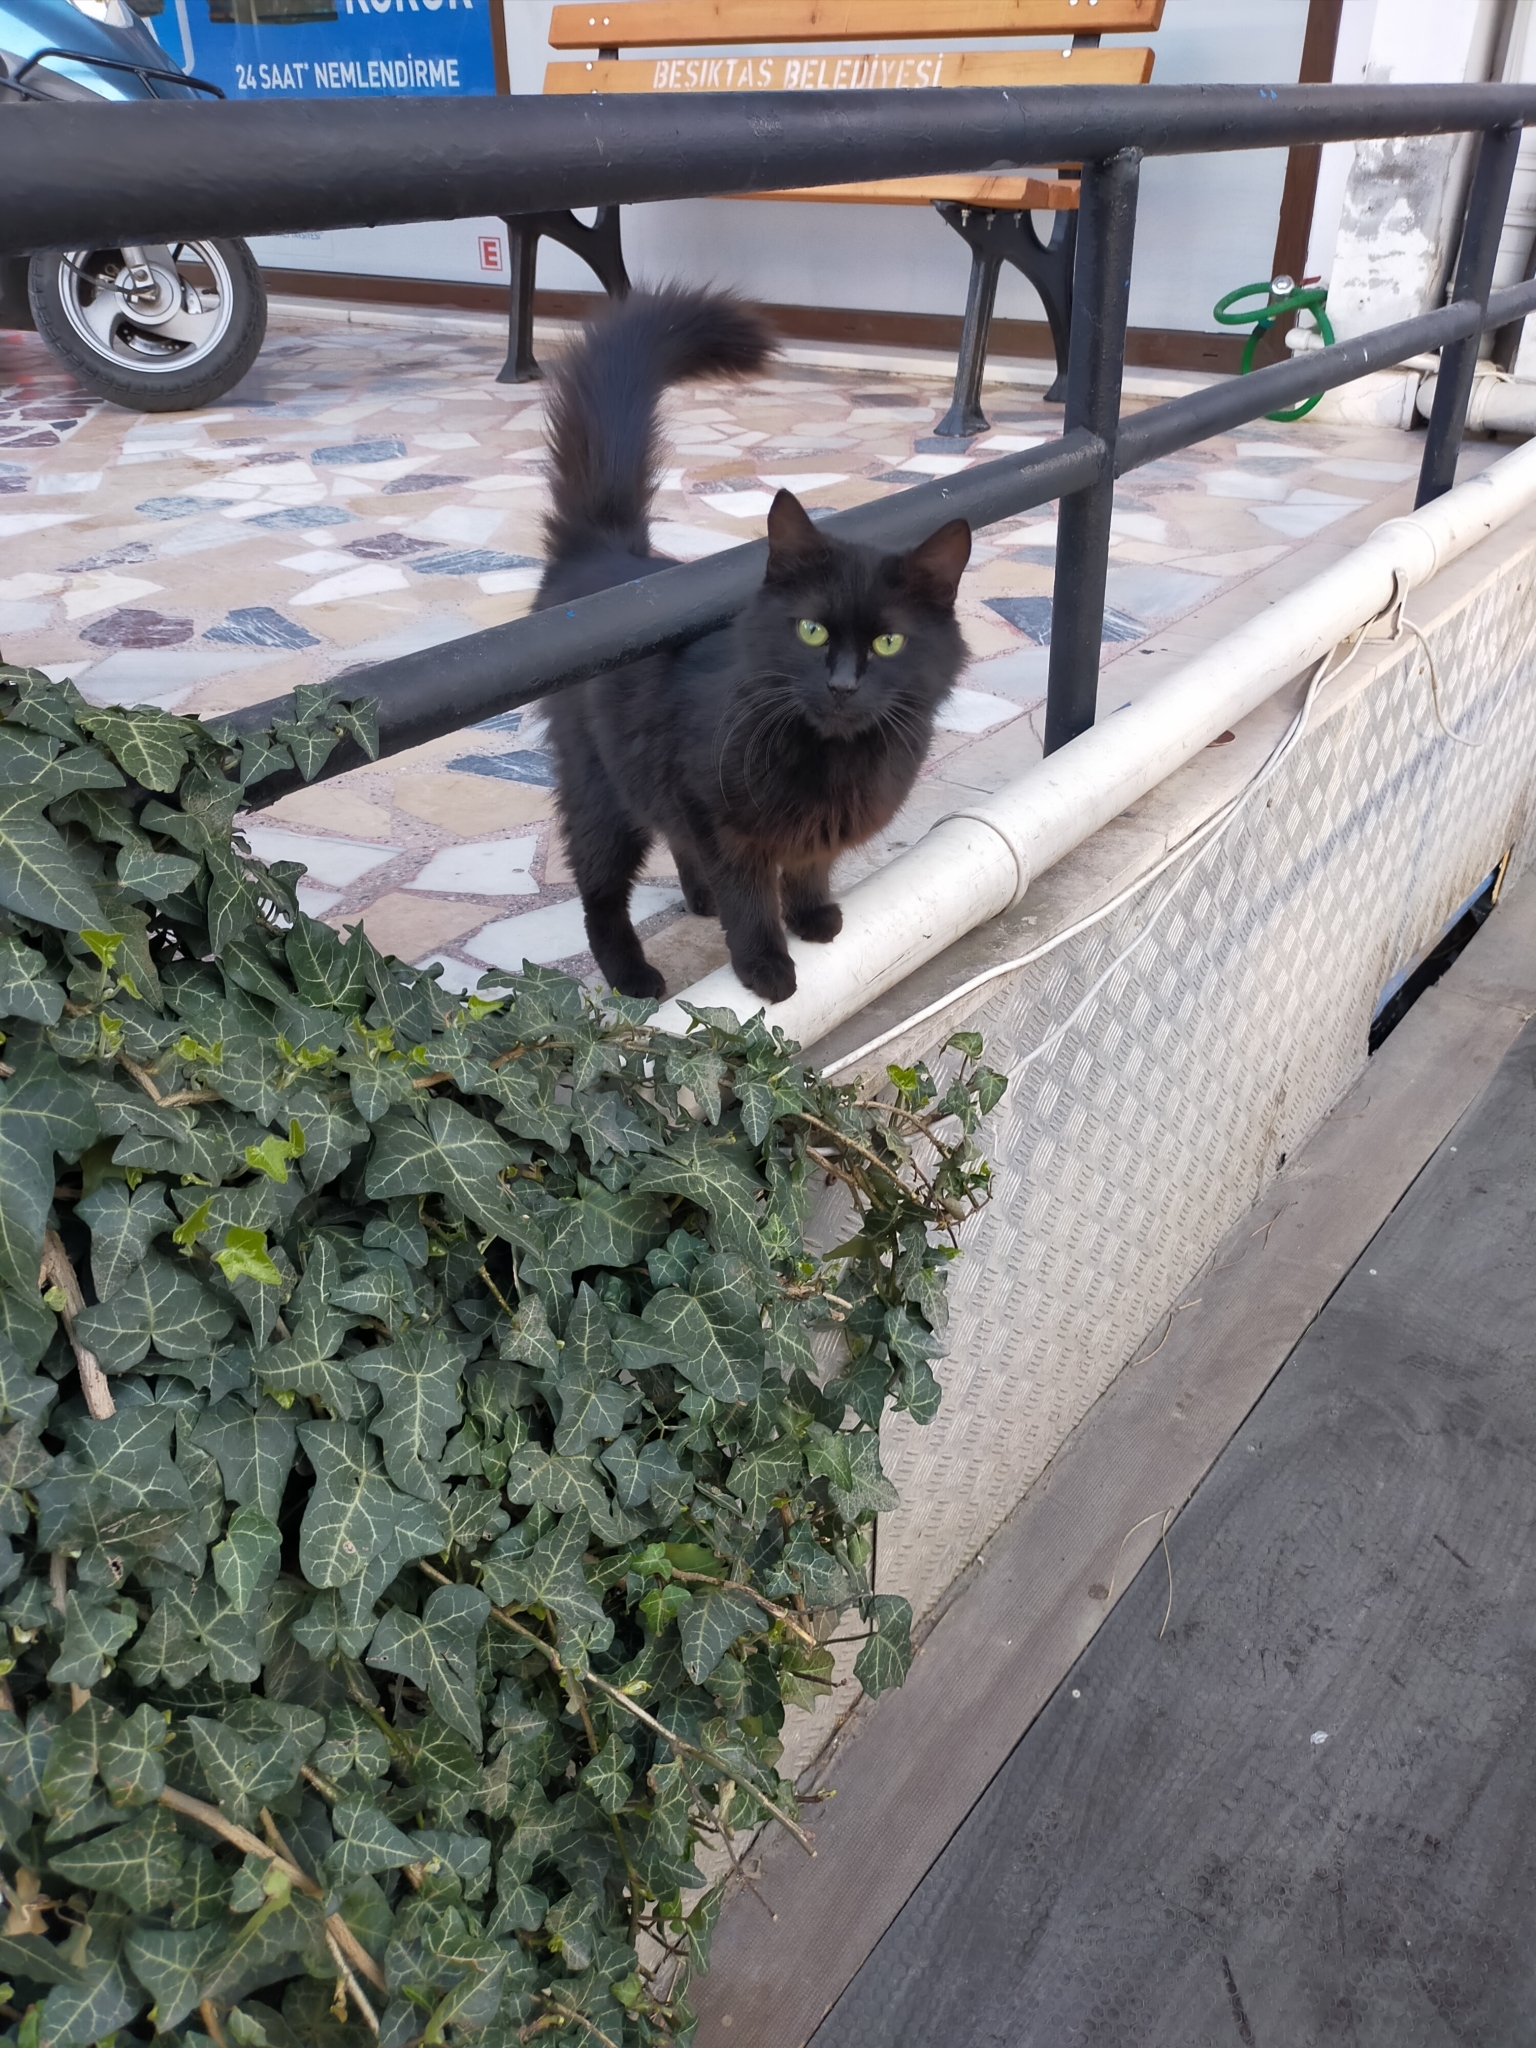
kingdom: Animalia
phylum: Chordata
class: Mammalia
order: Carnivora
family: Felidae
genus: Felis
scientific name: Felis catus
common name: Domestic cat
